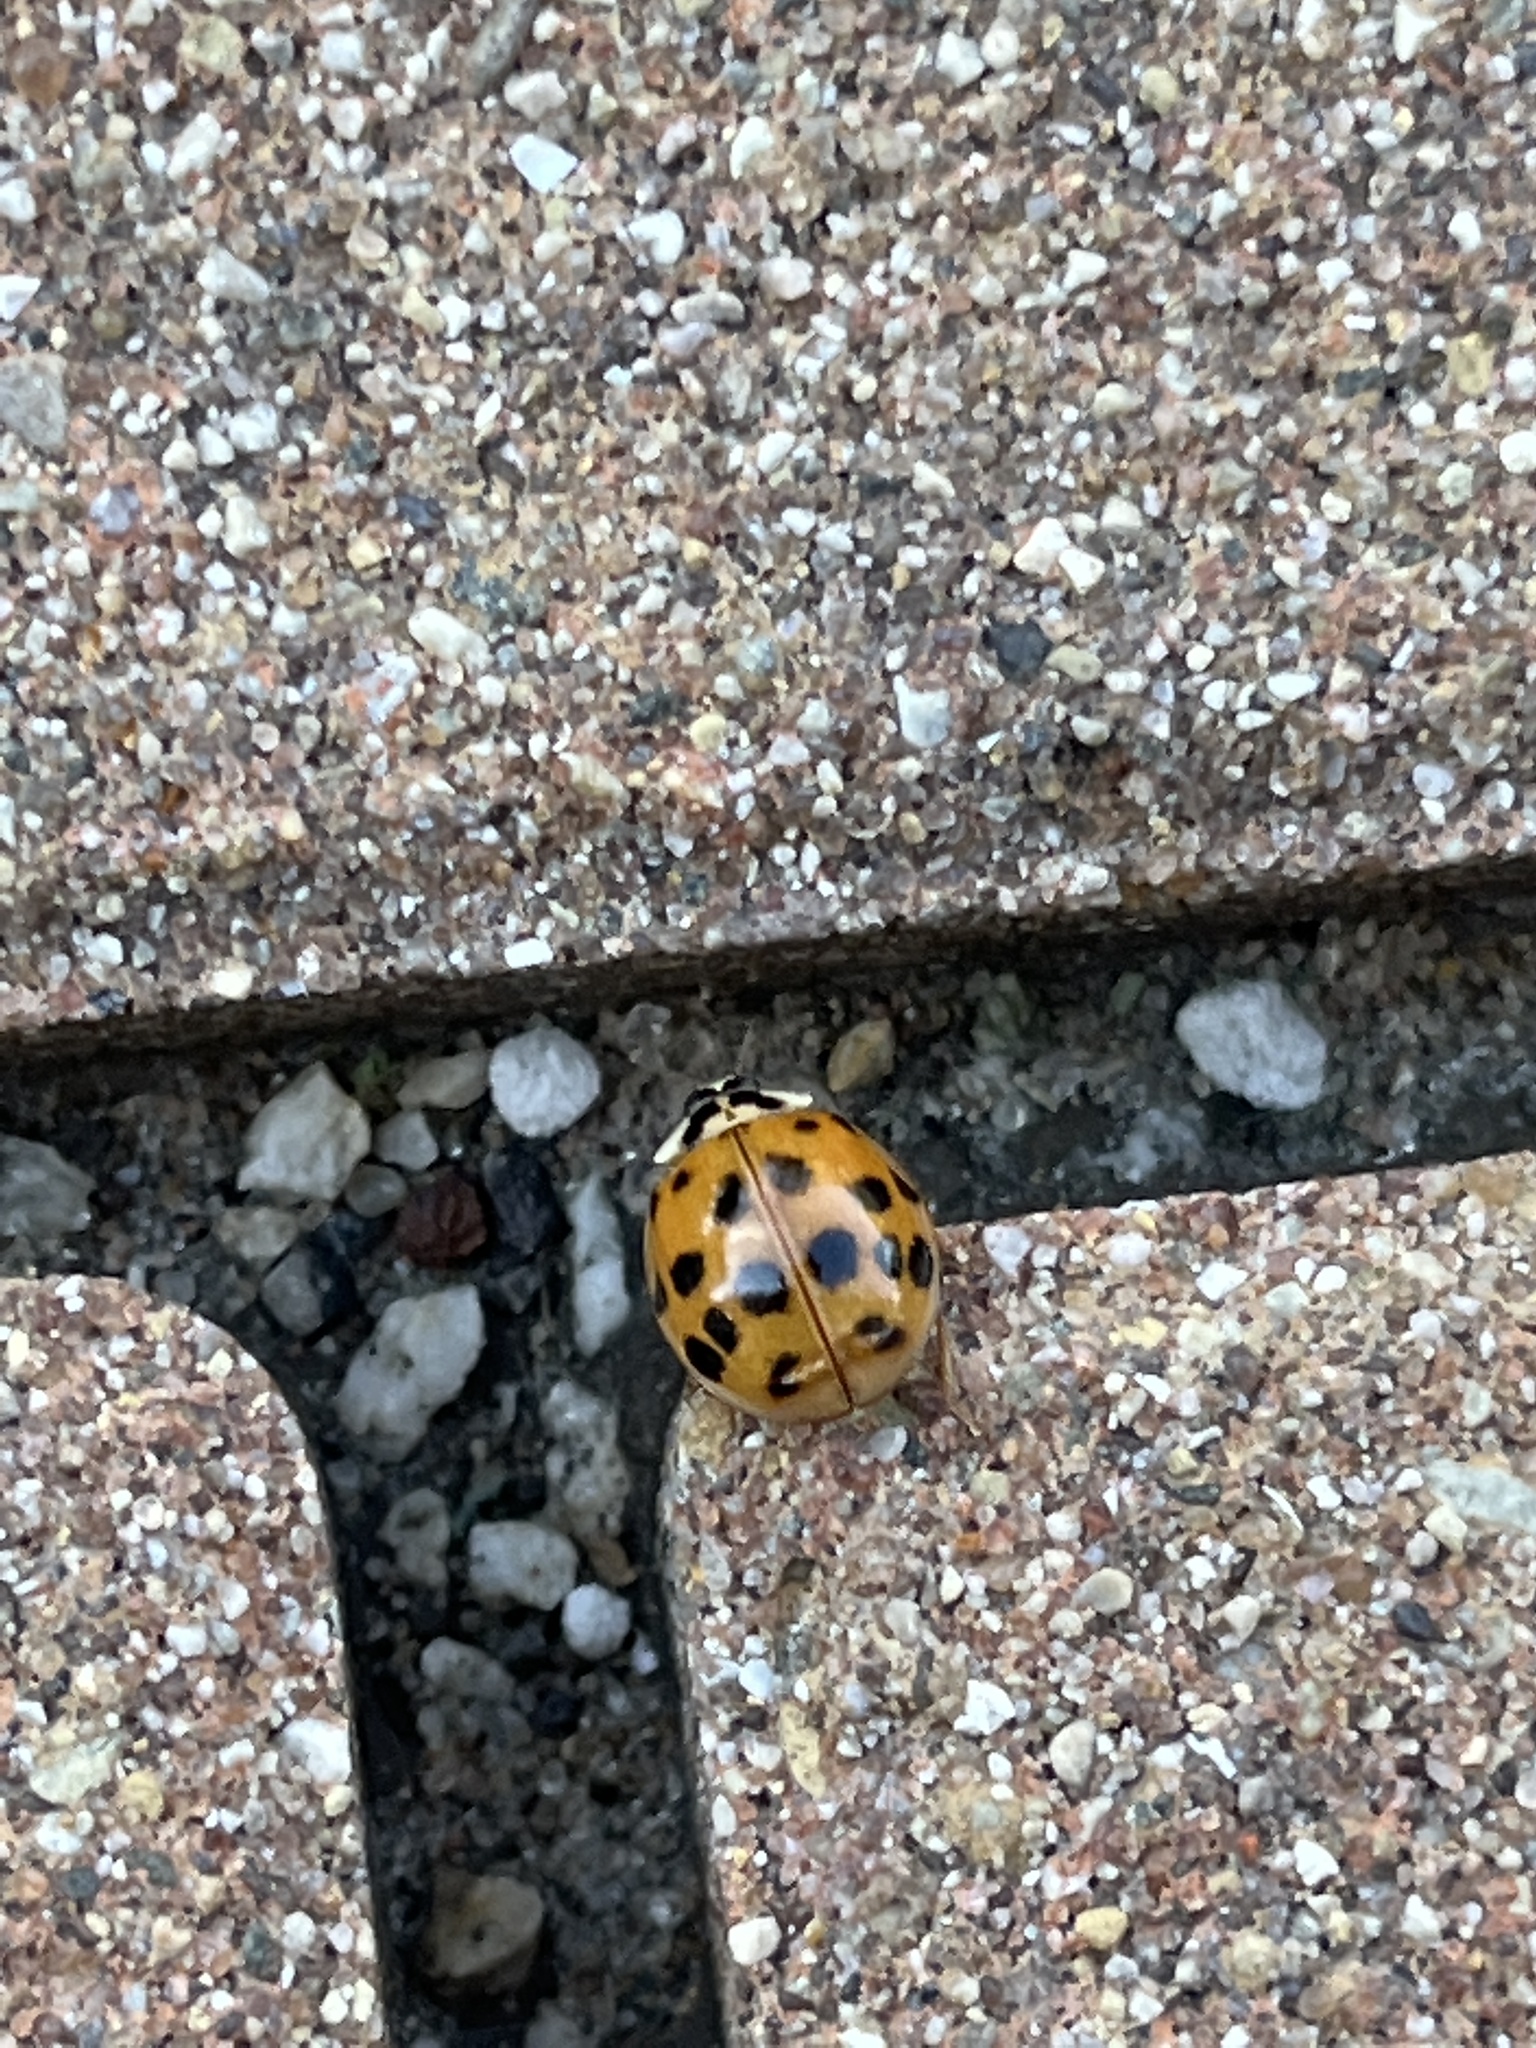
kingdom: Animalia
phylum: Arthropoda
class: Insecta
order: Coleoptera
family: Coccinellidae
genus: Harmonia
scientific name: Harmonia axyridis
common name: Harlequin ladybird
